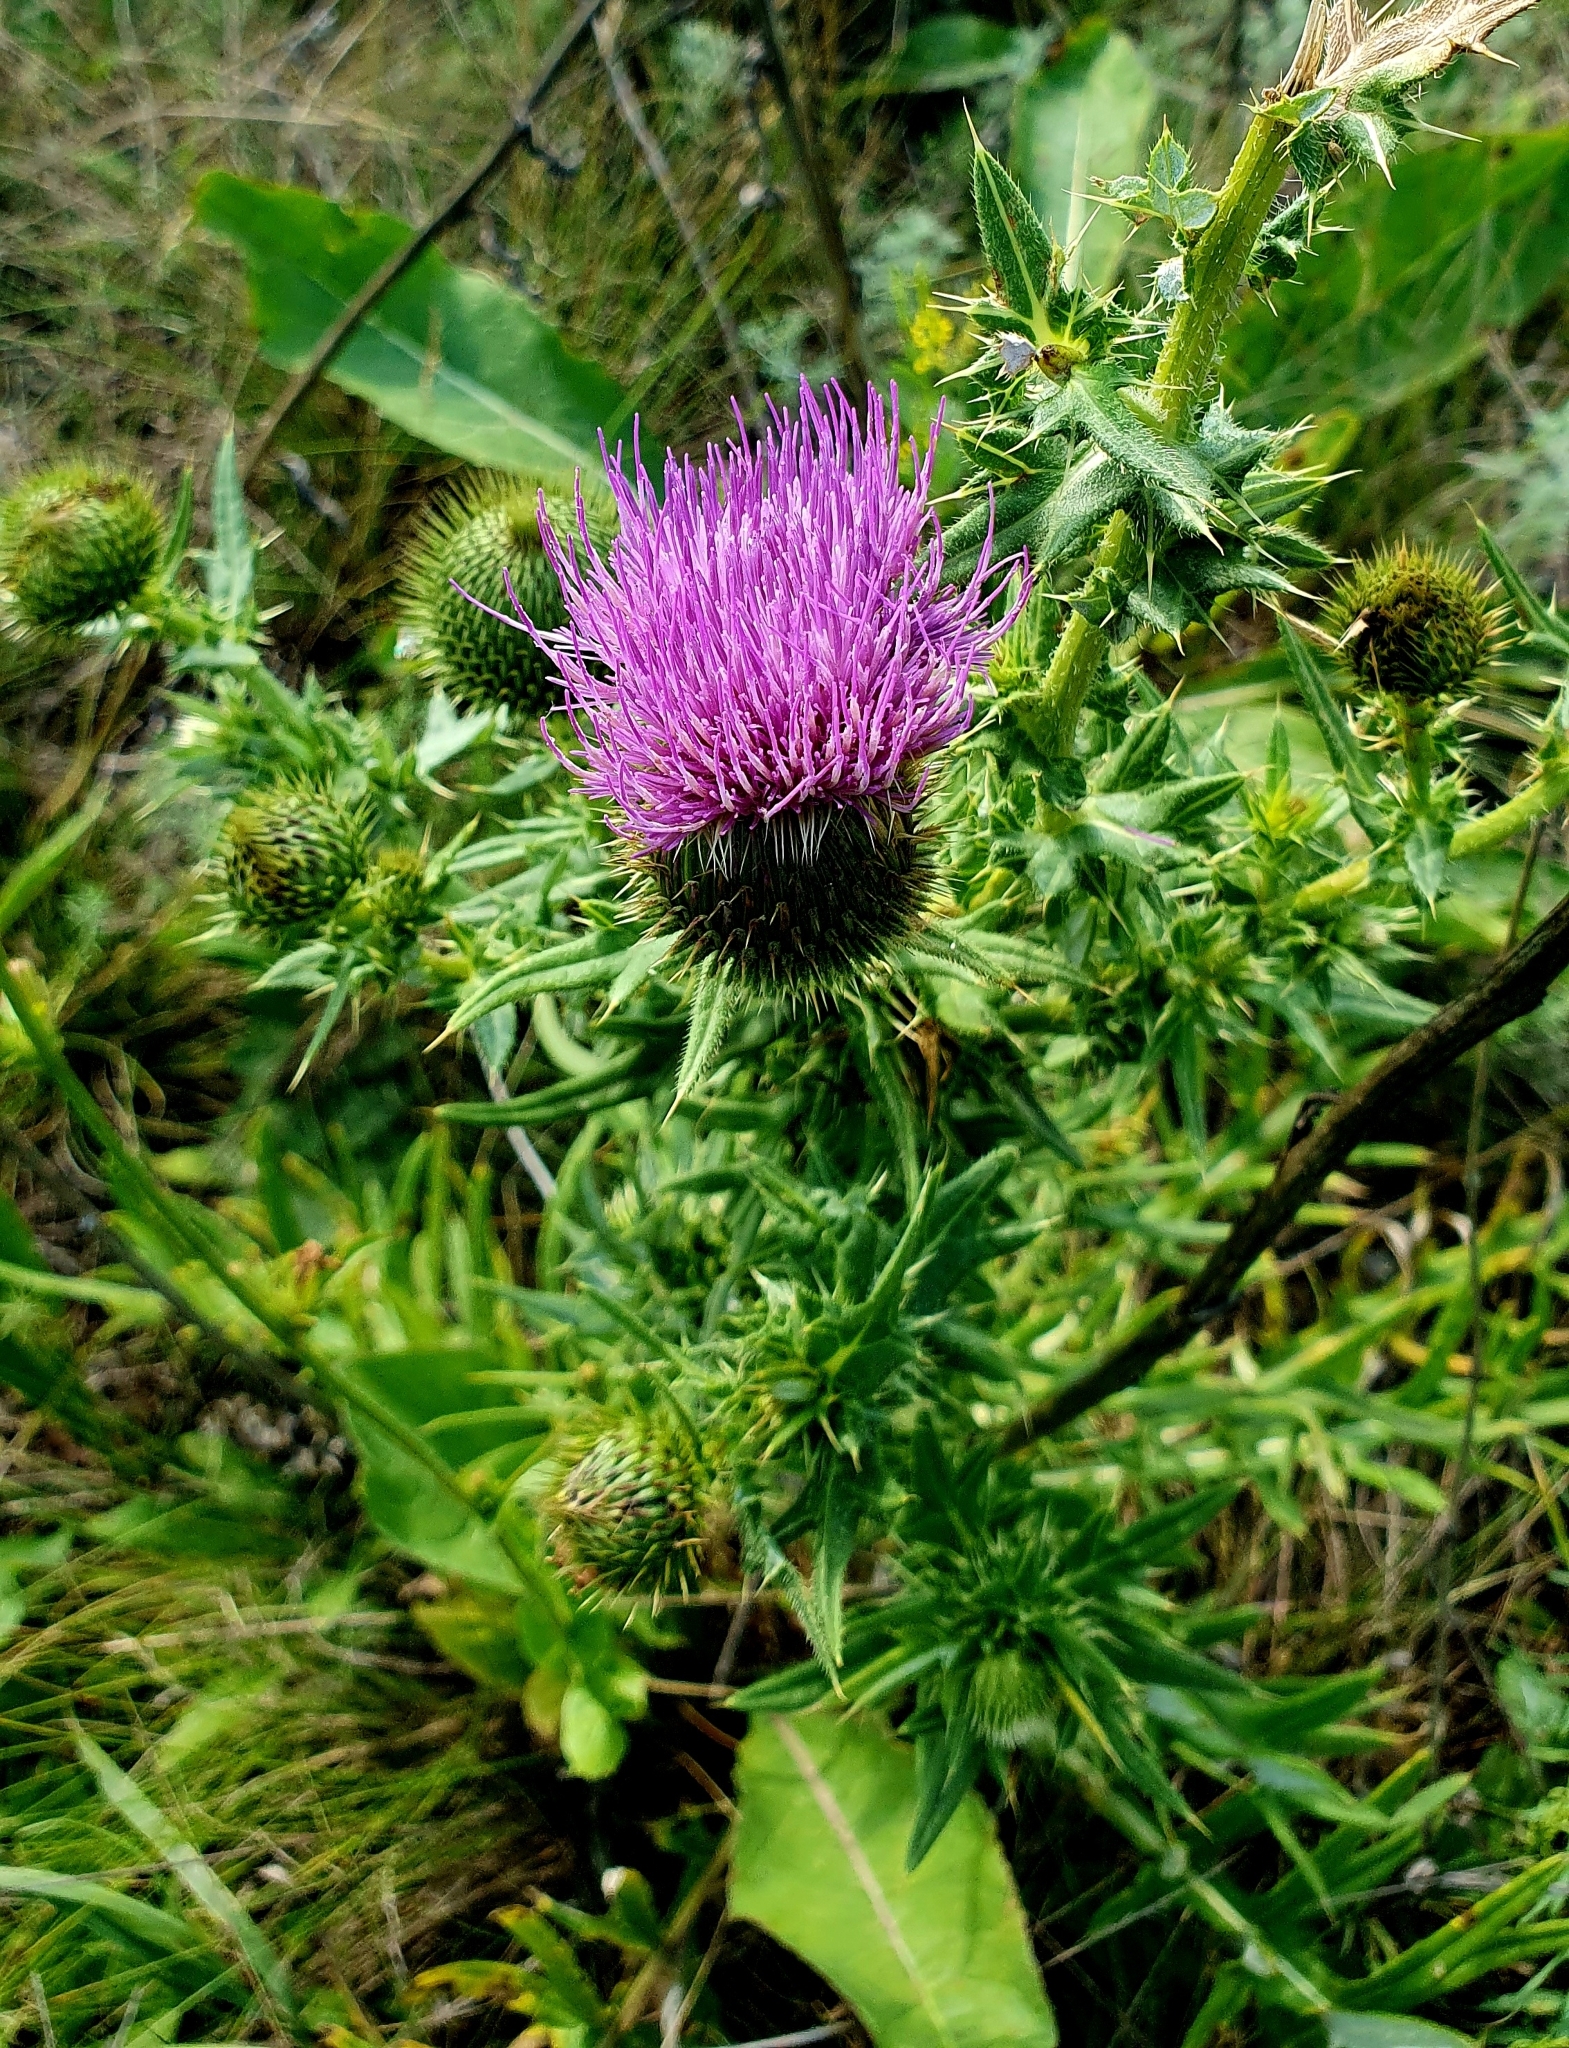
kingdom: Plantae
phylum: Tracheophyta
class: Magnoliopsida
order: Asterales
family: Asteraceae
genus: Cirsium
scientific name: Cirsium serrulatum
